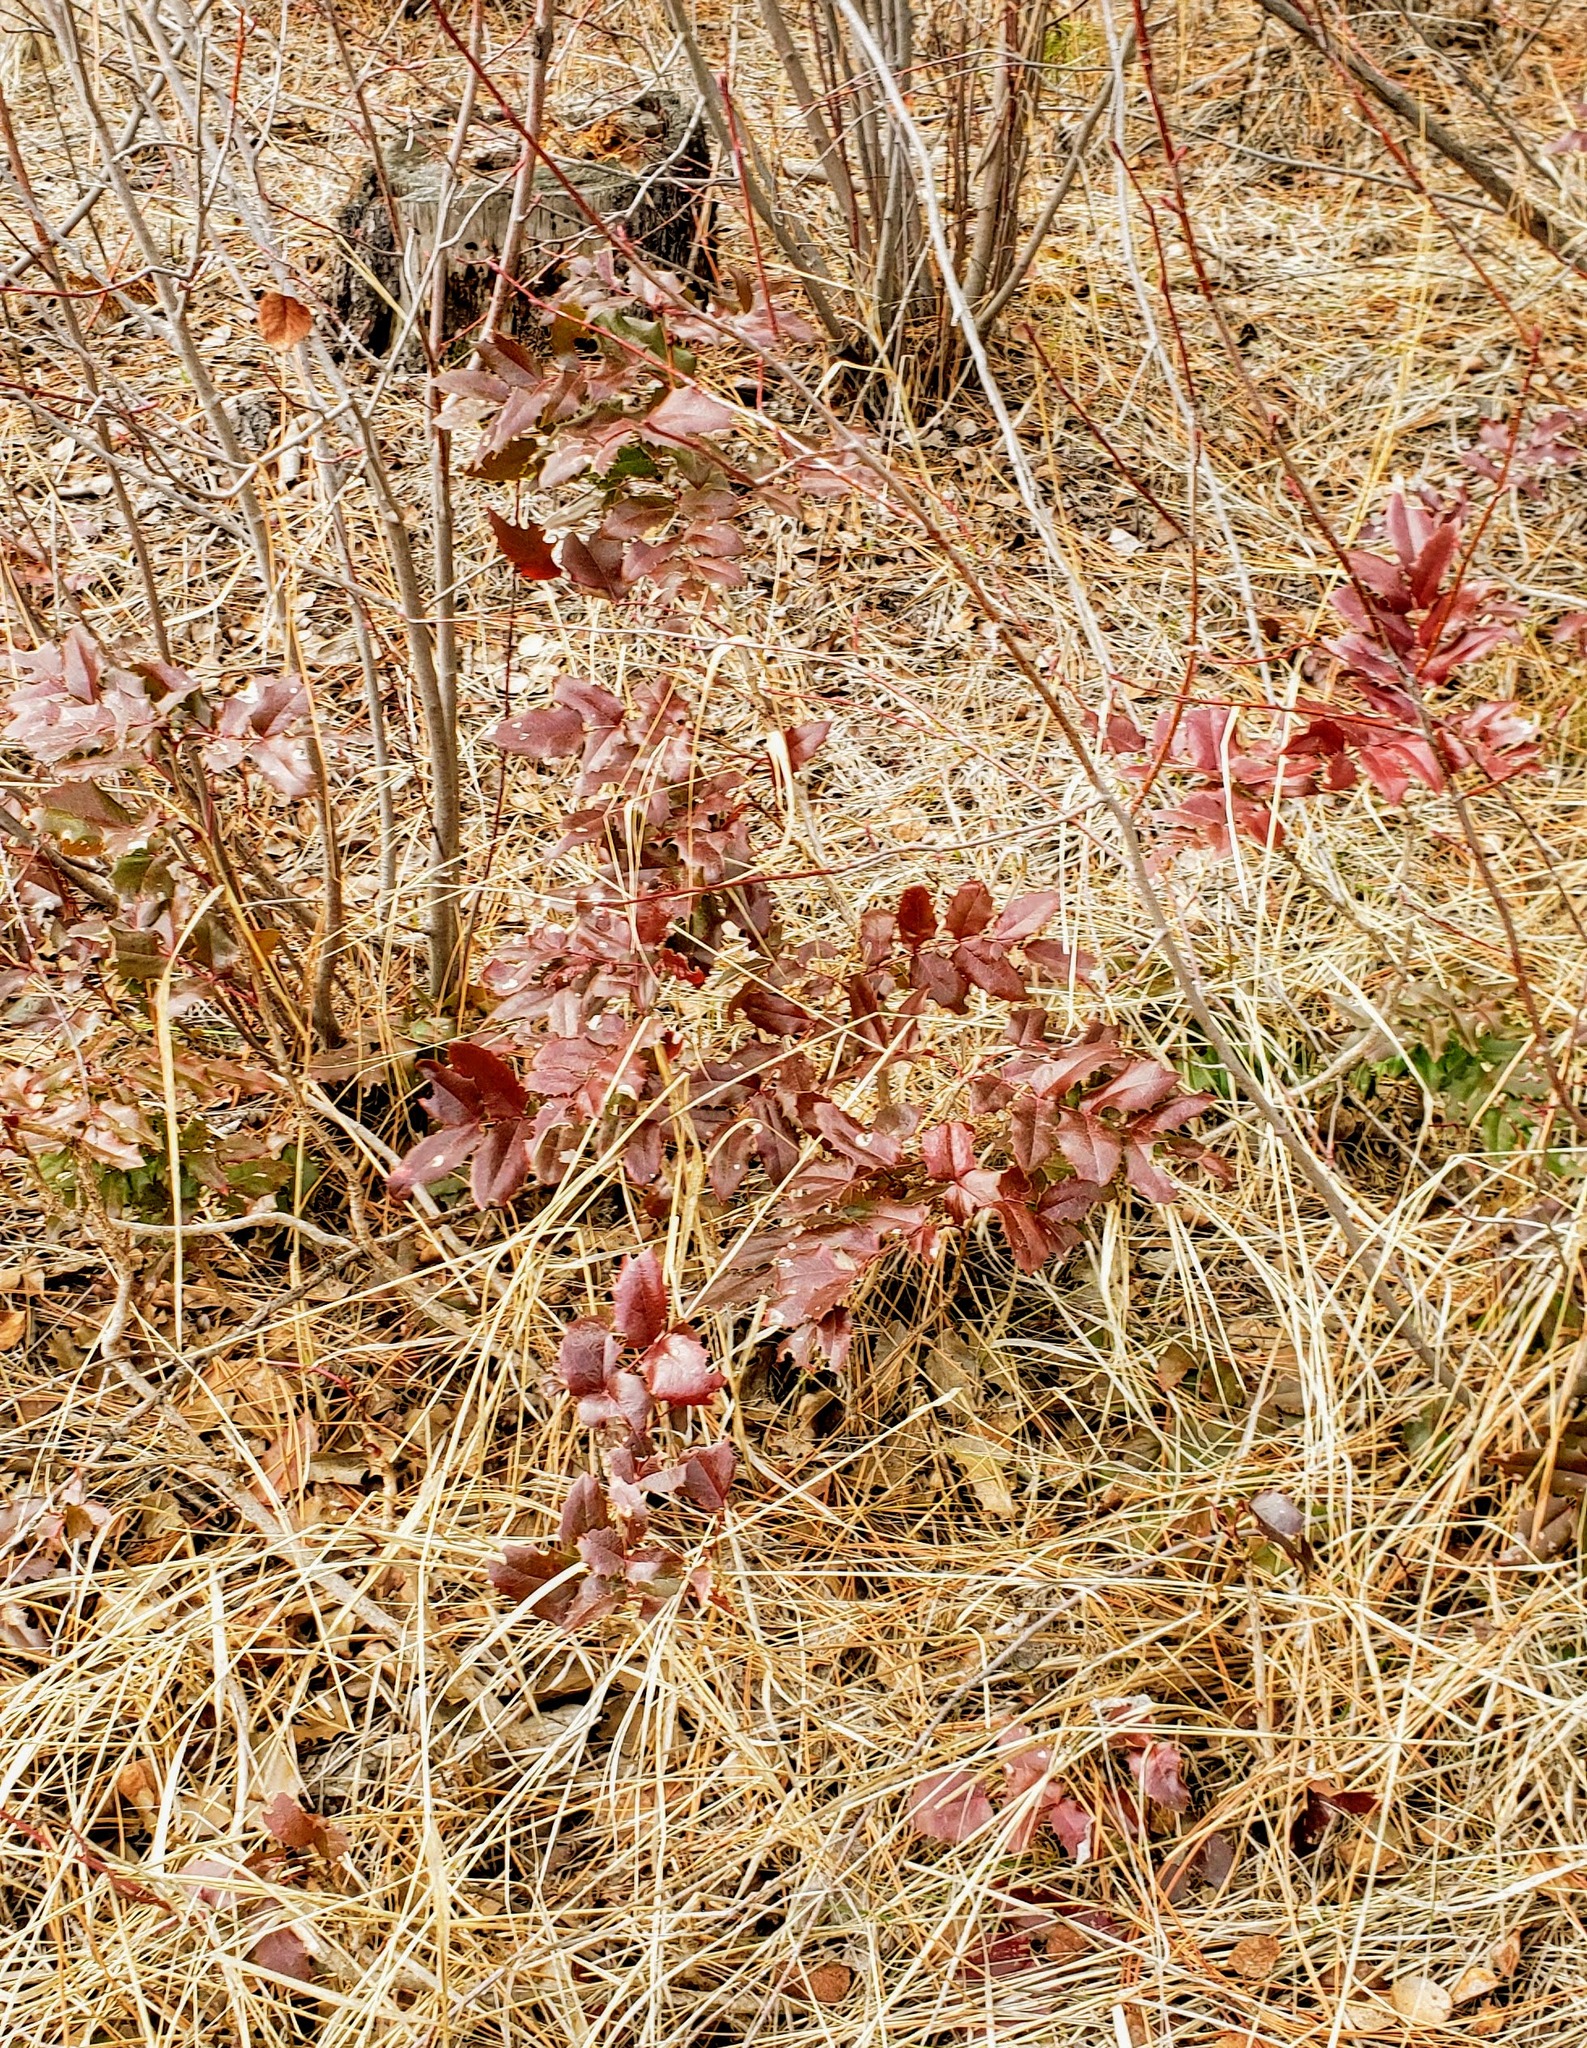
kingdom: Plantae
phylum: Tracheophyta
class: Magnoliopsida
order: Ranunculales
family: Berberidaceae
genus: Mahonia
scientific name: Mahonia aquifolium
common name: Oregon-grape
